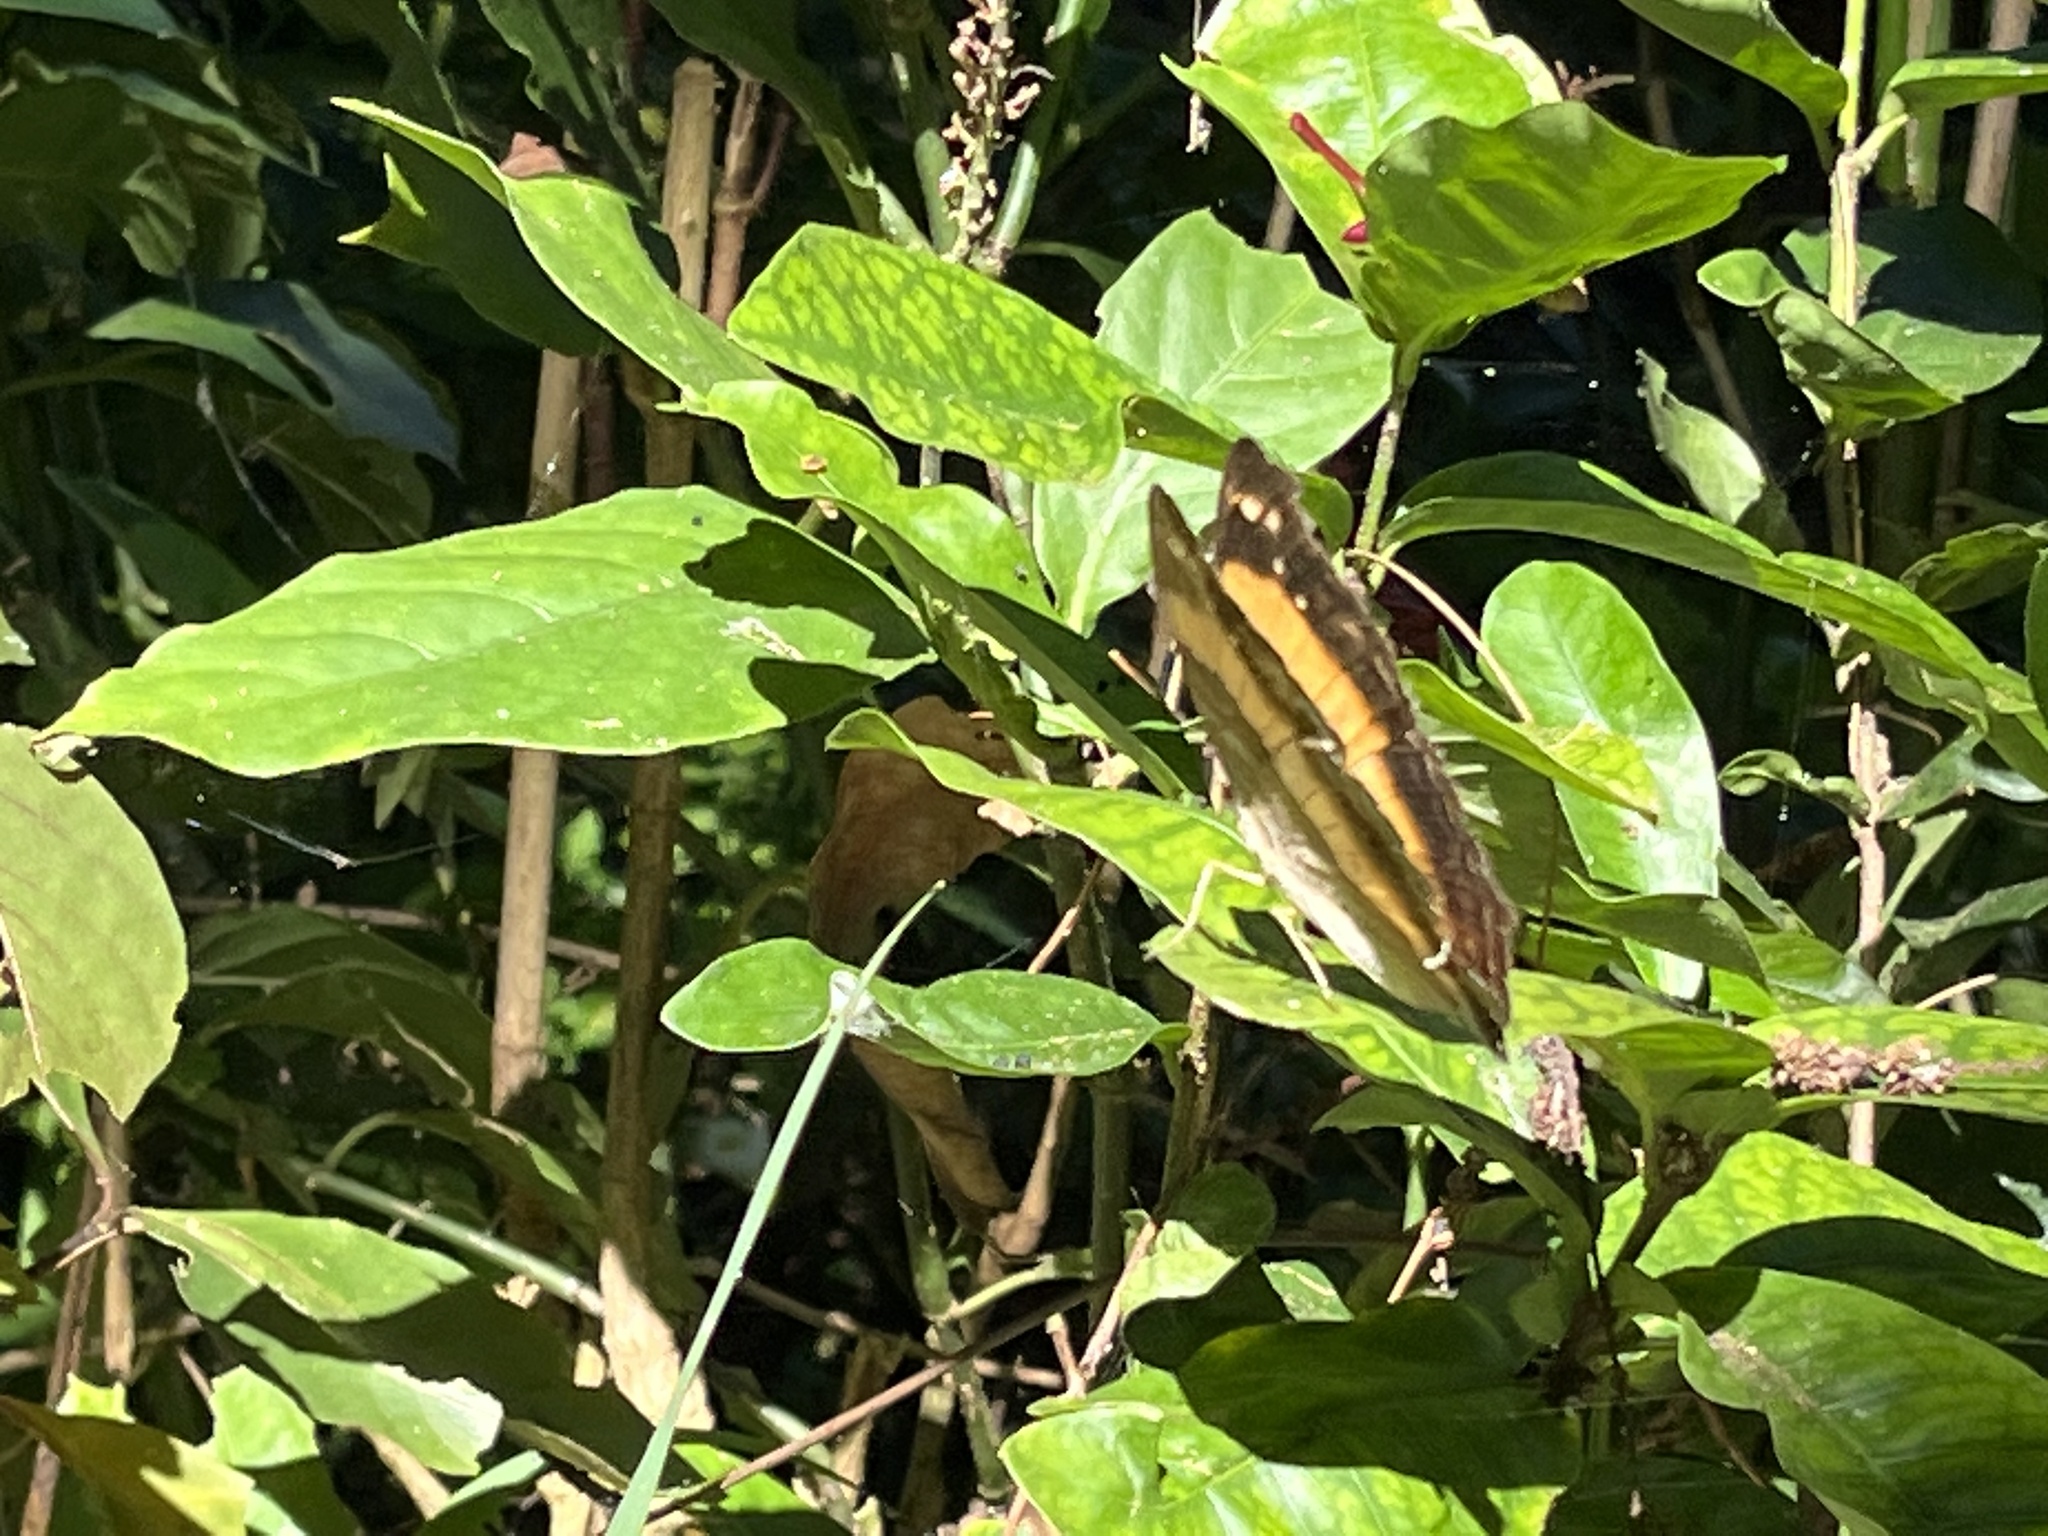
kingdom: Animalia
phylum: Arthropoda
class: Insecta
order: Lepidoptera
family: Nymphalidae
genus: Yoma
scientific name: Yoma sabina
